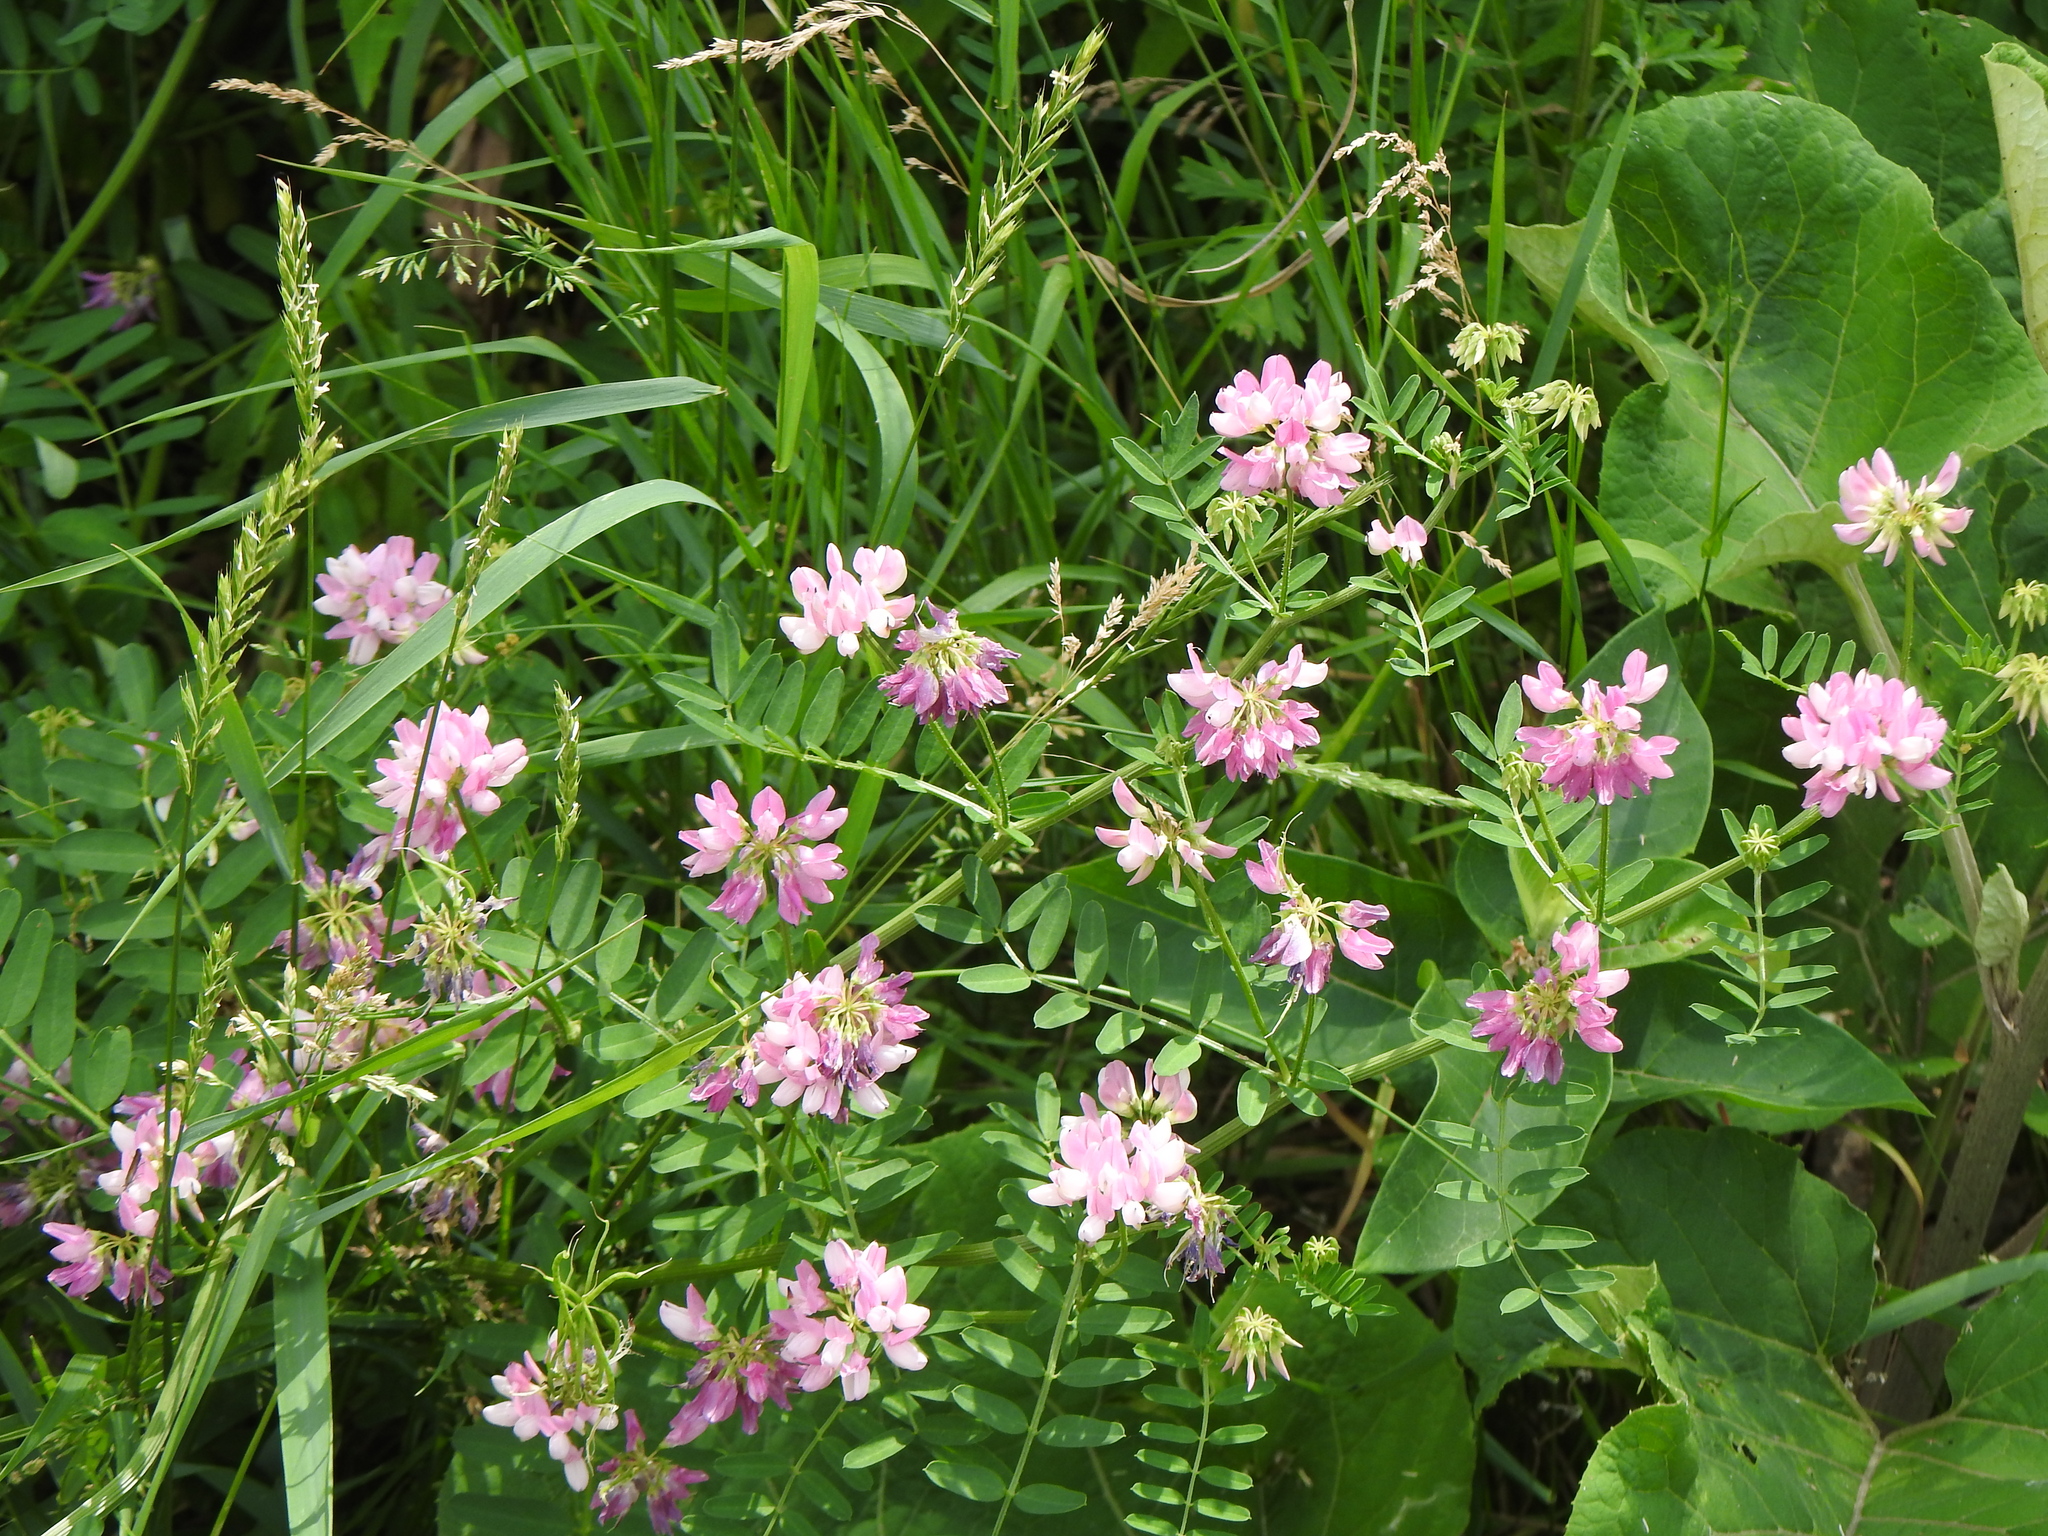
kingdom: Plantae
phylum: Tracheophyta
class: Magnoliopsida
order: Fabales
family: Fabaceae
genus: Coronilla
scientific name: Coronilla varia
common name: Crownvetch
